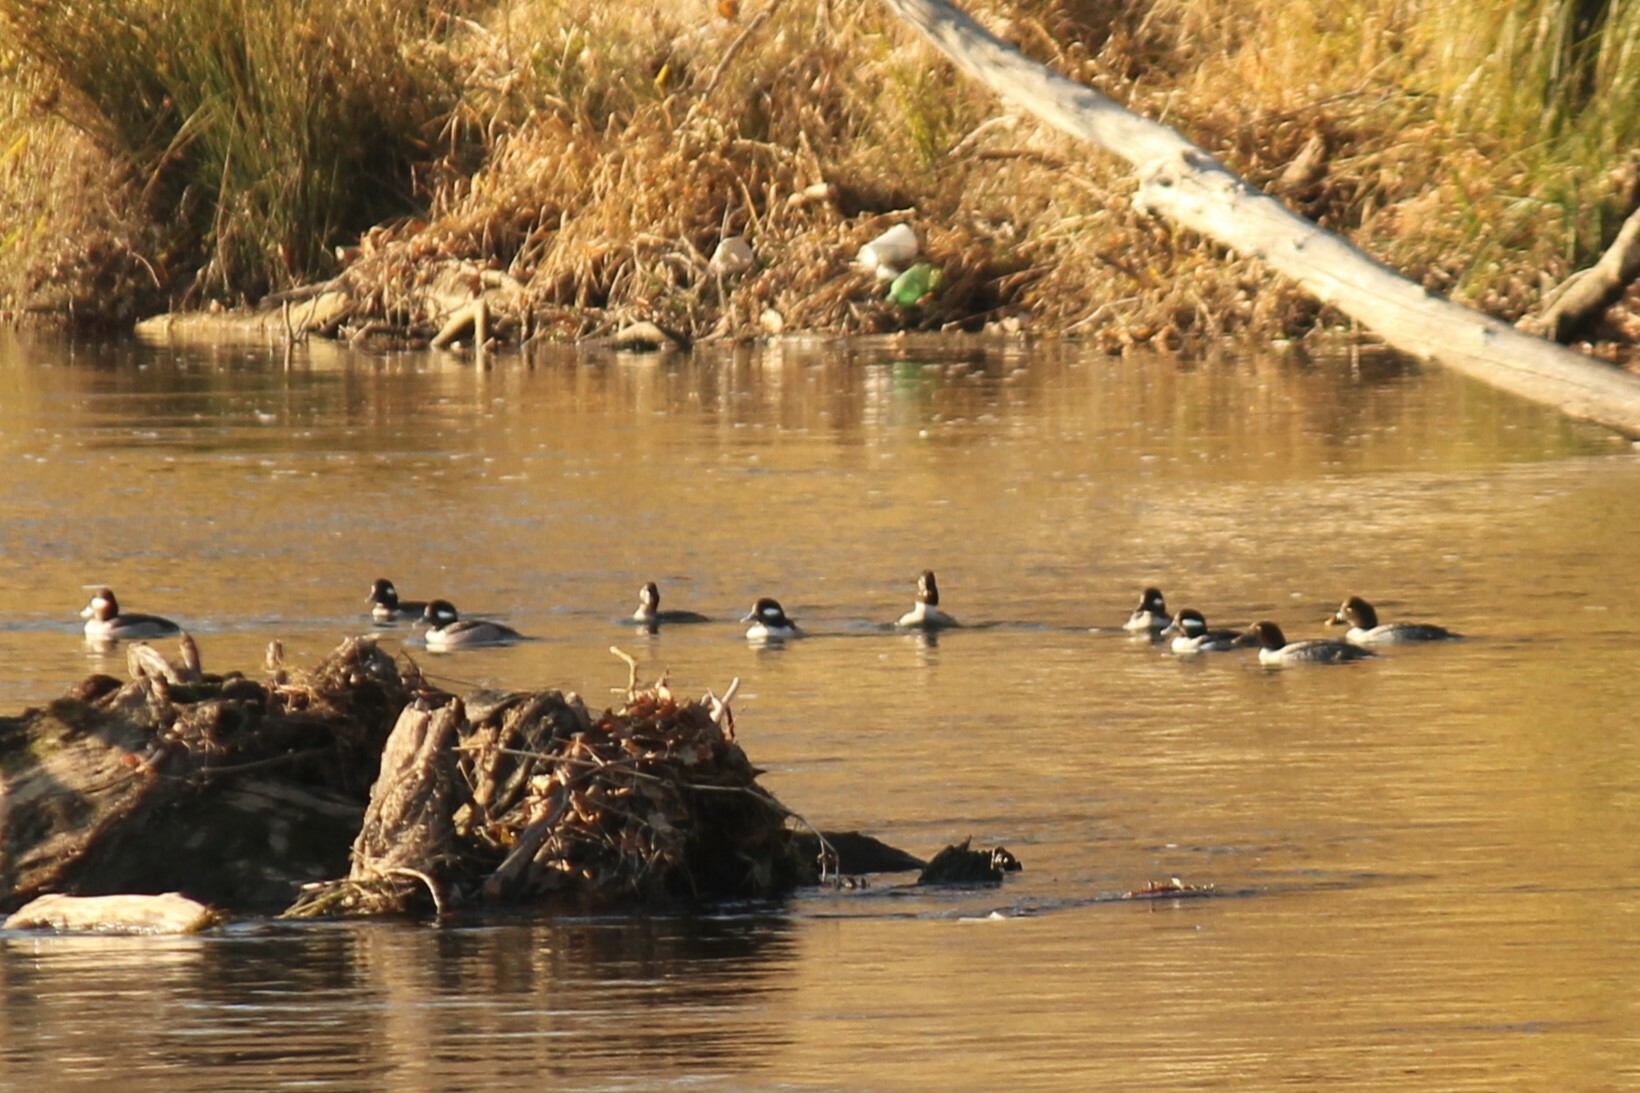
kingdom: Animalia
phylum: Chordata
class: Aves
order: Anseriformes
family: Anatidae
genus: Bucephala
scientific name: Bucephala albeola
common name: Bufflehead
